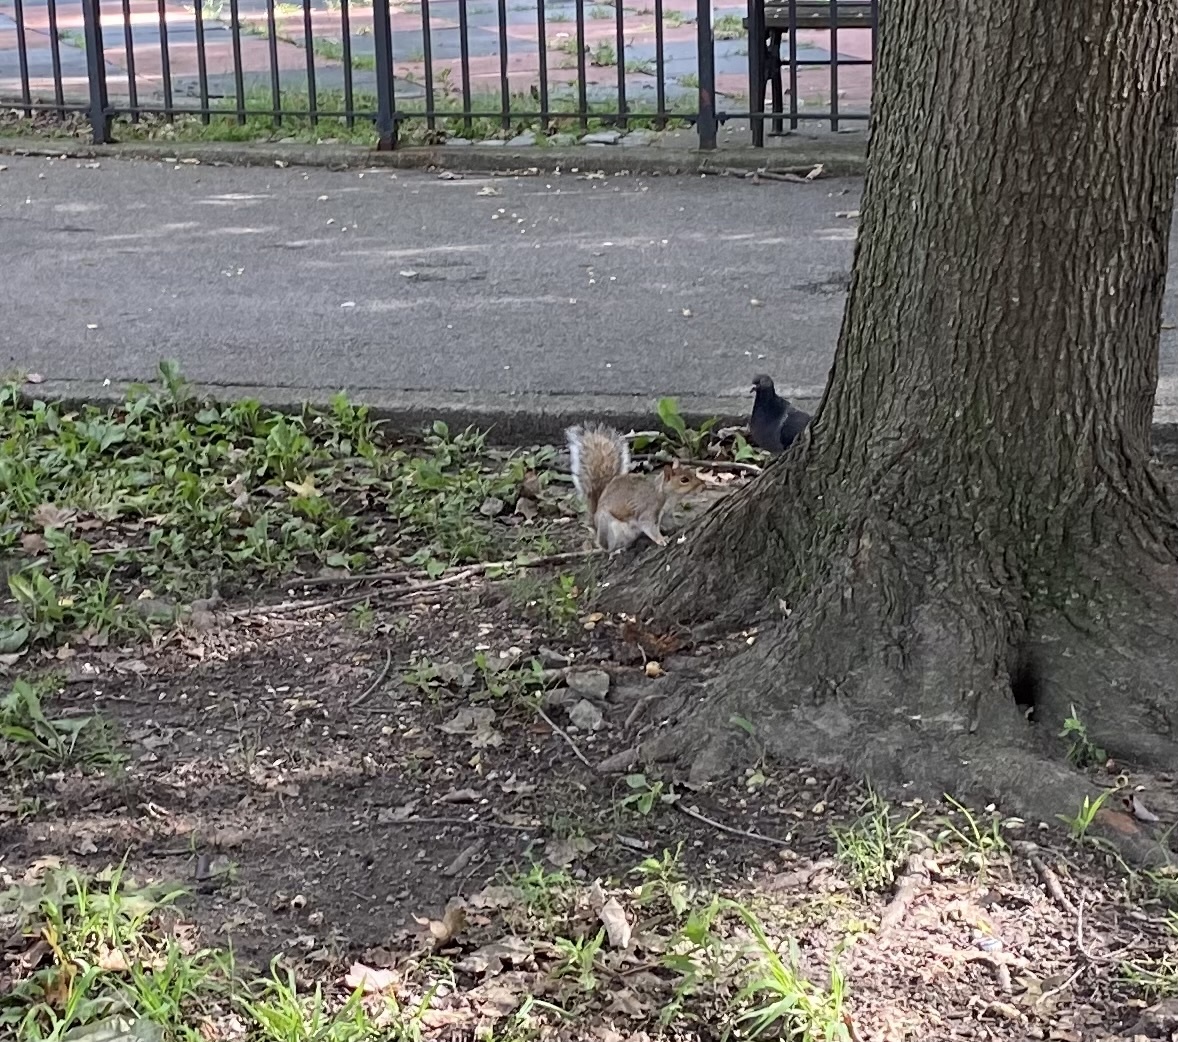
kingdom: Animalia
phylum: Chordata
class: Mammalia
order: Rodentia
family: Sciuridae
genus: Sciurus
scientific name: Sciurus carolinensis
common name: Eastern gray squirrel
